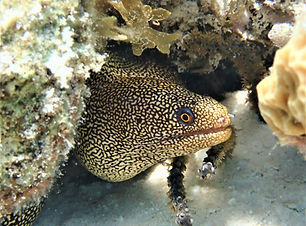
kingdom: Animalia
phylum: Chordata
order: Anguilliformes
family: Muraenidae
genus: Gymnothorax
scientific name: Gymnothorax miliaris
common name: Goldentail moray
